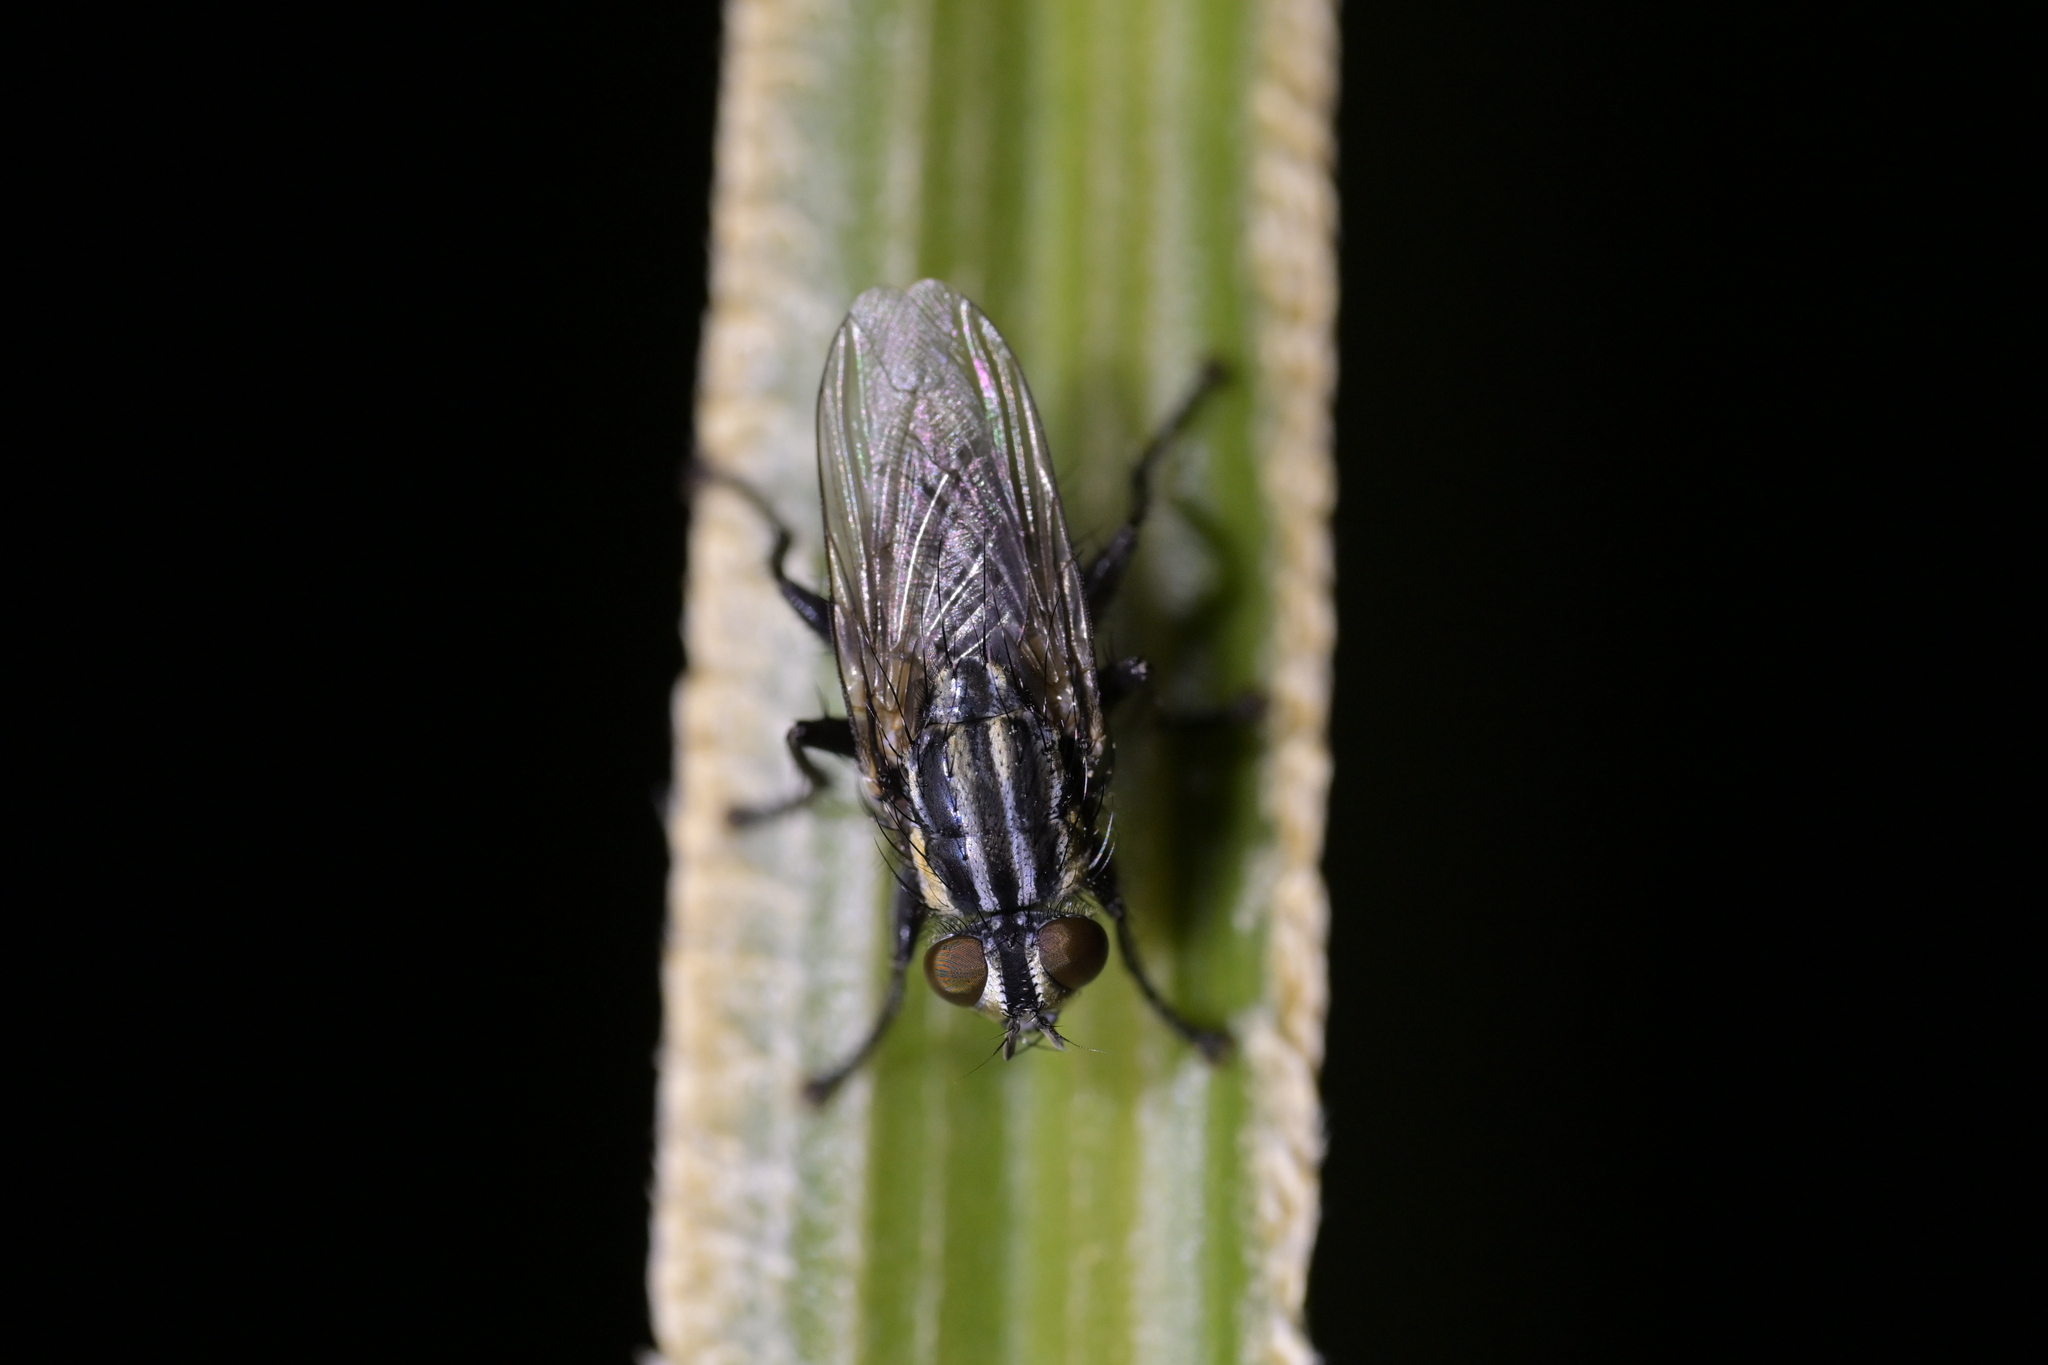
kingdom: Animalia
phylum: Arthropoda
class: Insecta
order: Diptera
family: Sarcophagidae
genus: Oxysarcodexia
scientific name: Oxysarcodexia varia
